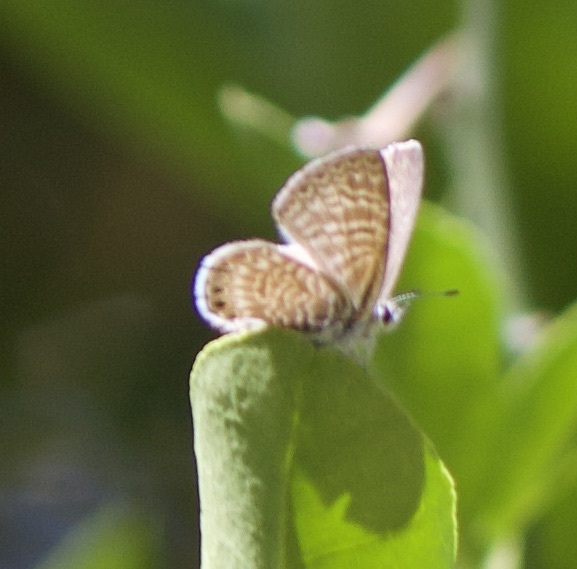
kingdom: Animalia
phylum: Arthropoda
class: Insecta
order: Lepidoptera
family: Lycaenidae
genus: Leptotes
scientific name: Leptotes trigemmatus
